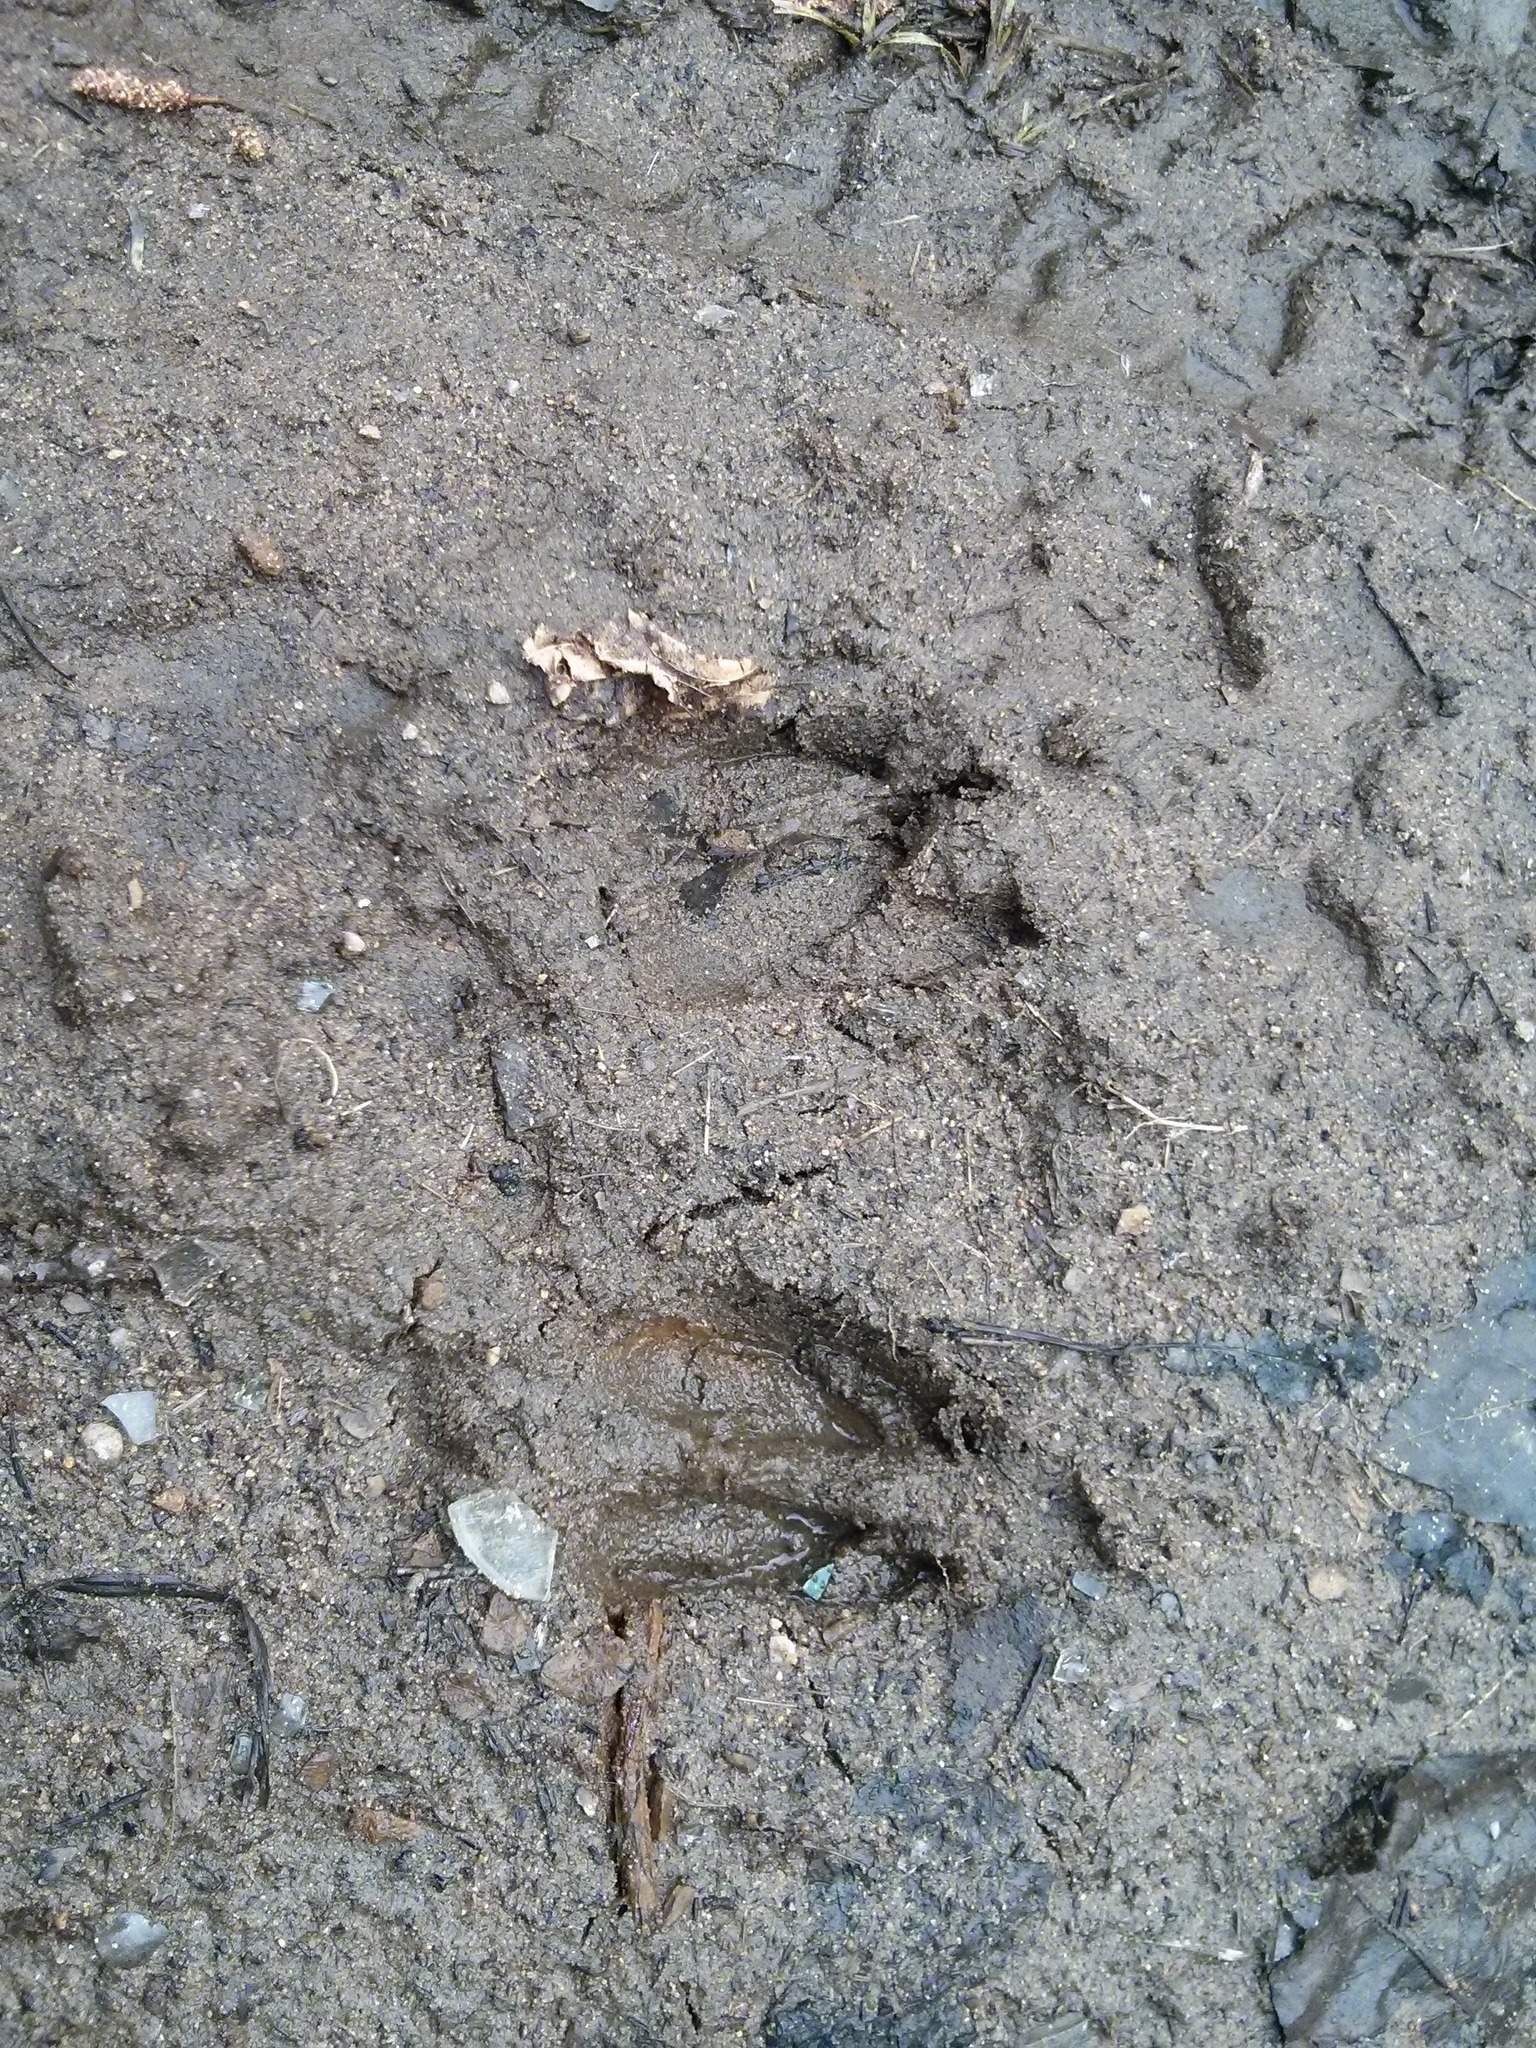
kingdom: Animalia
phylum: Chordata
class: Mammalia
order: Artiodactyla
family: Cervidae
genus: Odocoileus
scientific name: Odocoileus virginianus
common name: White-tailed deer
